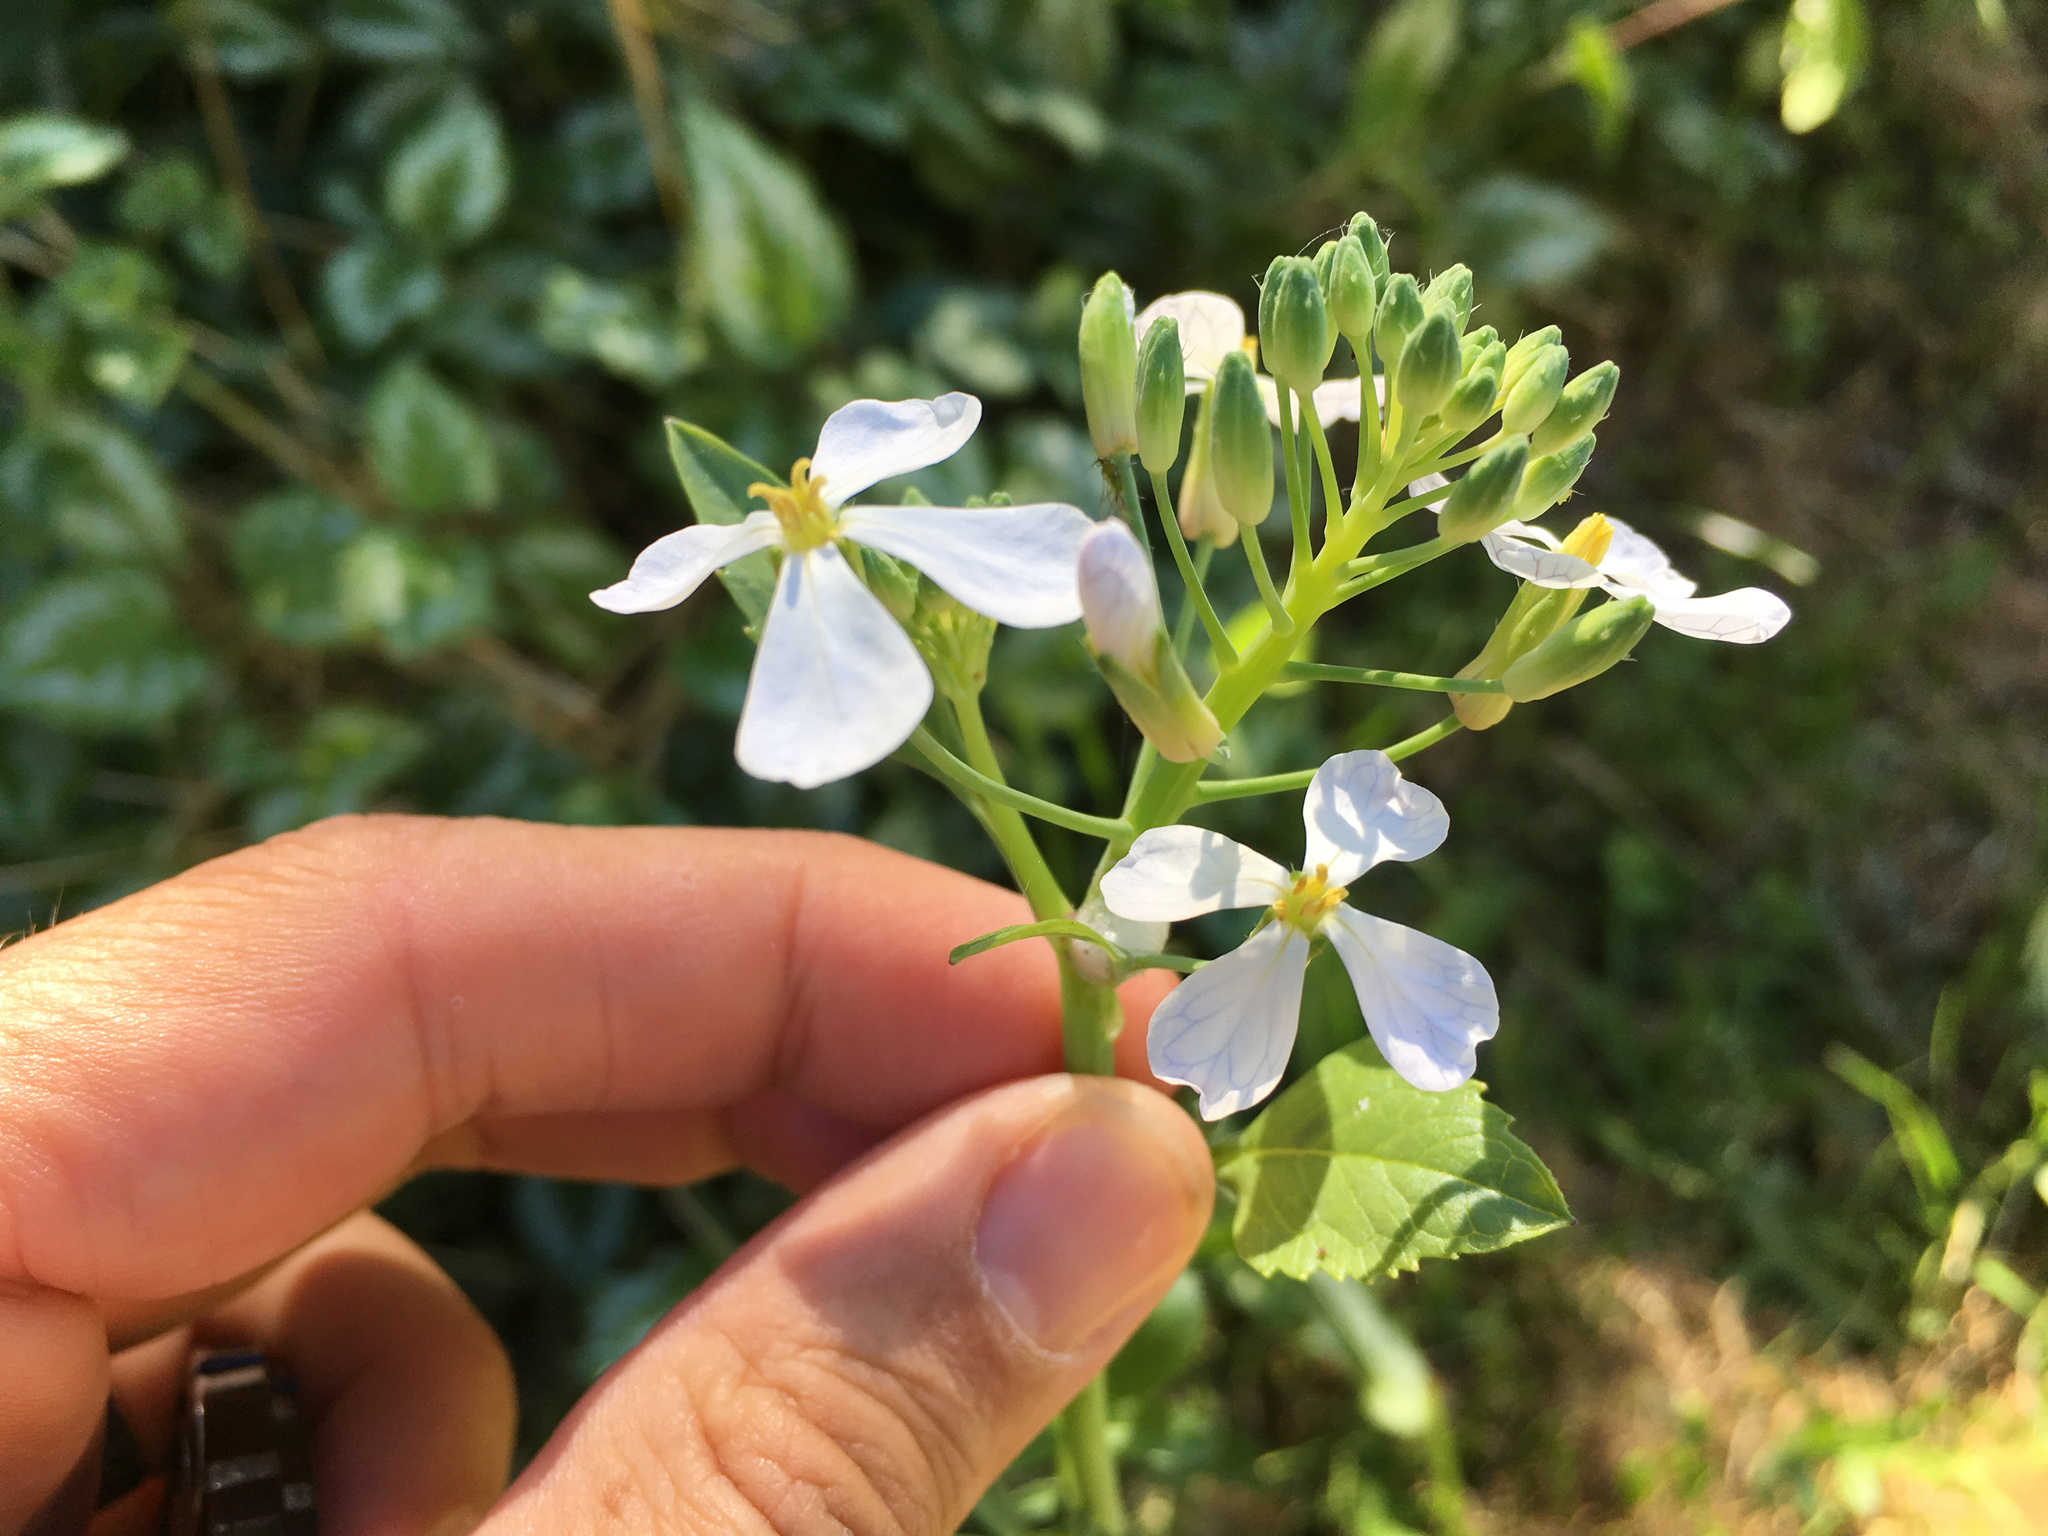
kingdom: Plantae
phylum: Tracheophyta
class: Magnoliopsida
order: Brassicales
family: Brassicaceae
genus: Raphanus
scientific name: Raphanus raphanistrum
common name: Wild radish
